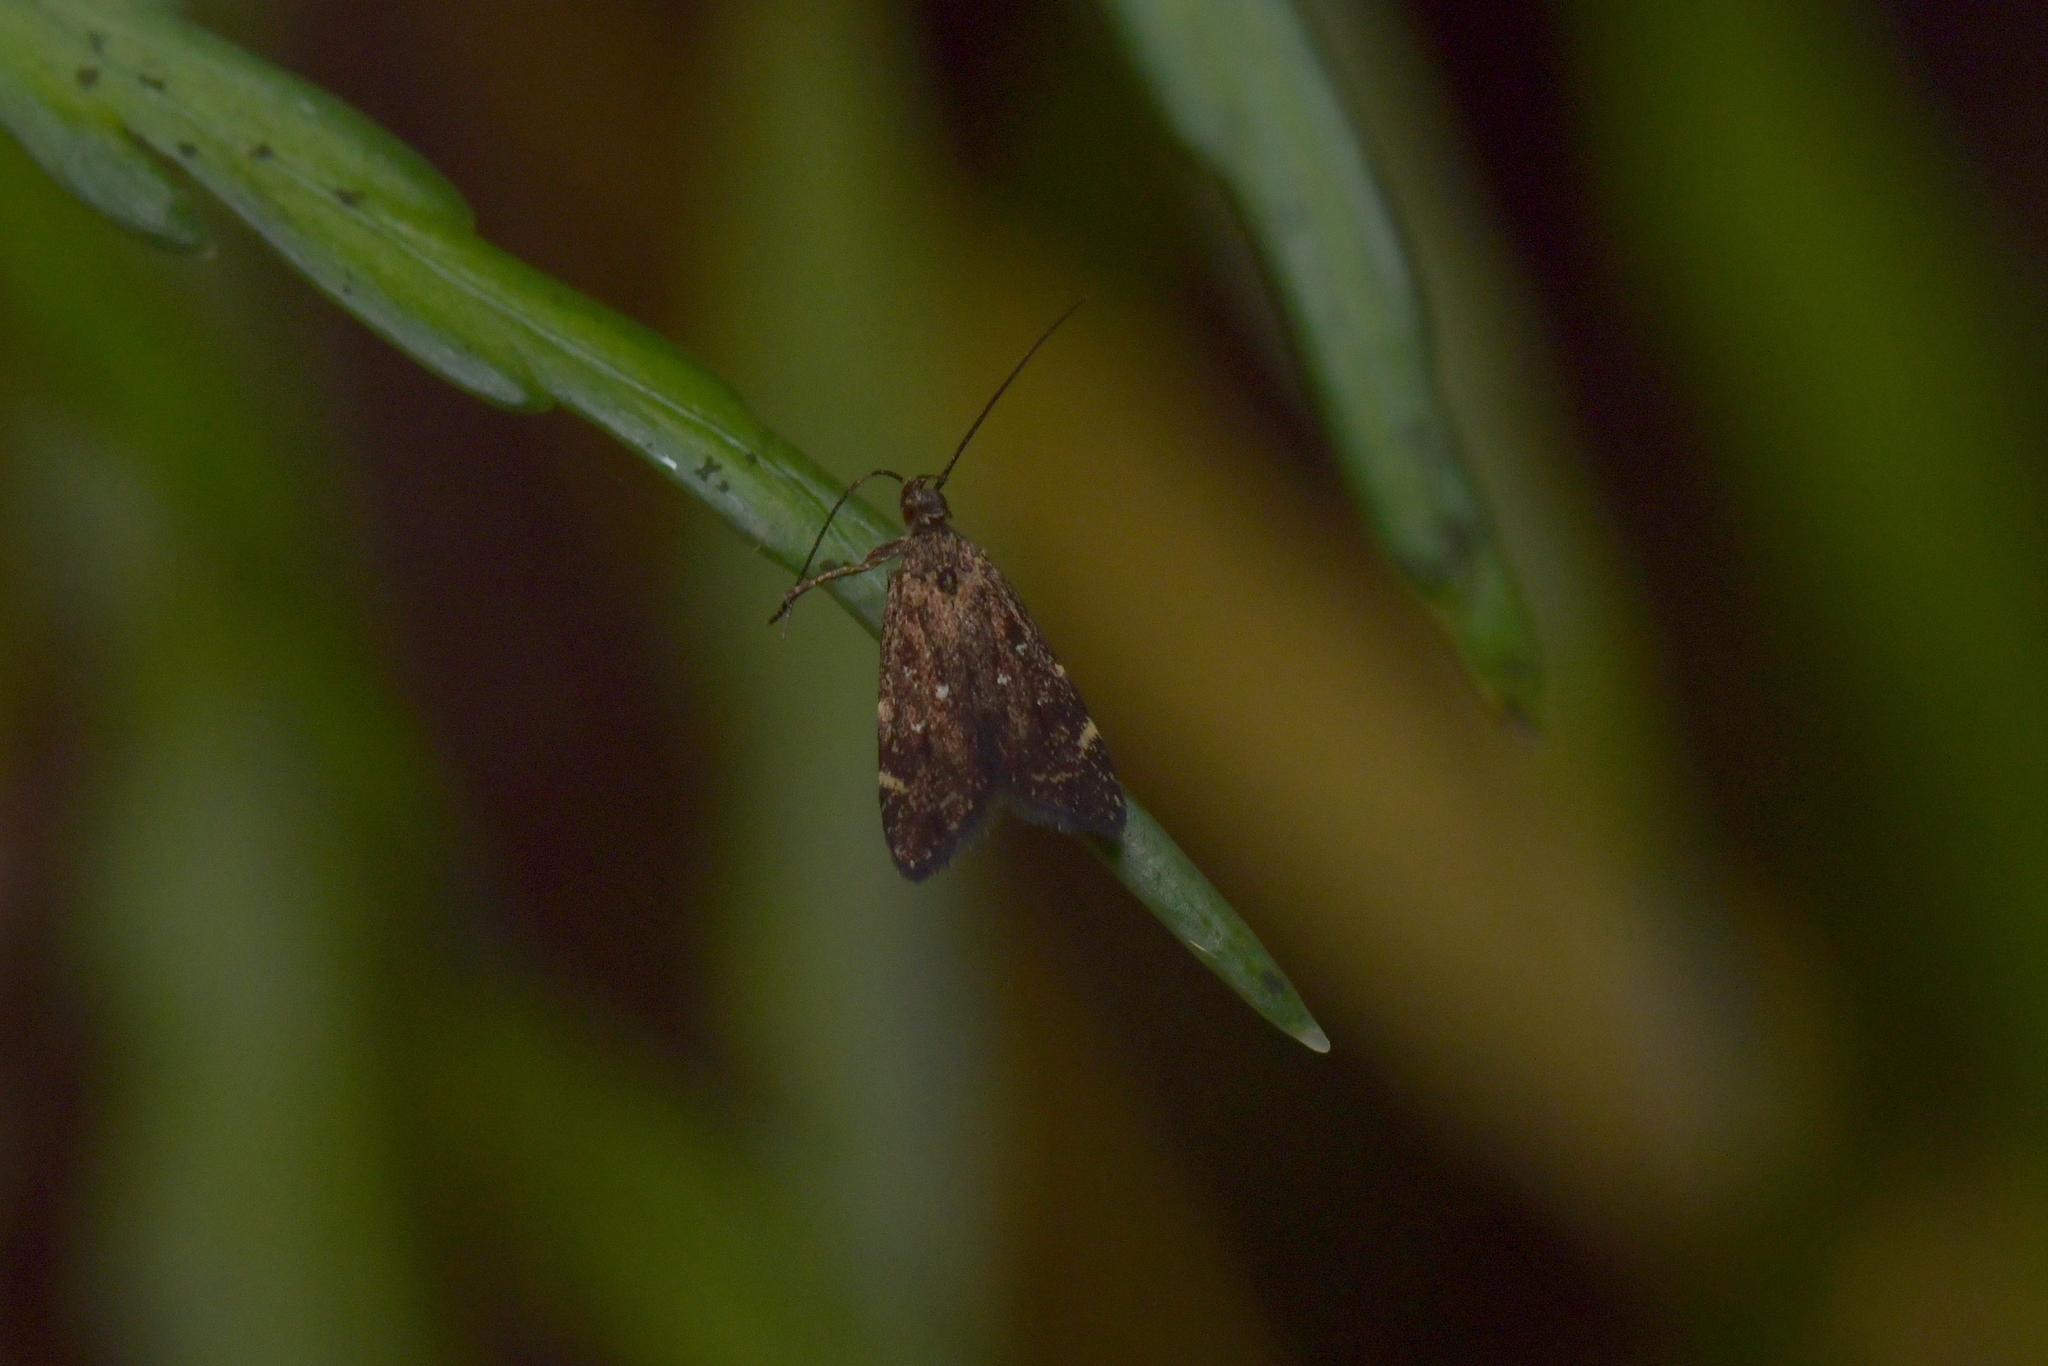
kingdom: Animalia
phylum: Arthropoda
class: Insecta
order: Lepidoptera
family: Oecophoridae
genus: Lathicrossa
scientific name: Lathicrossa leucocentra
